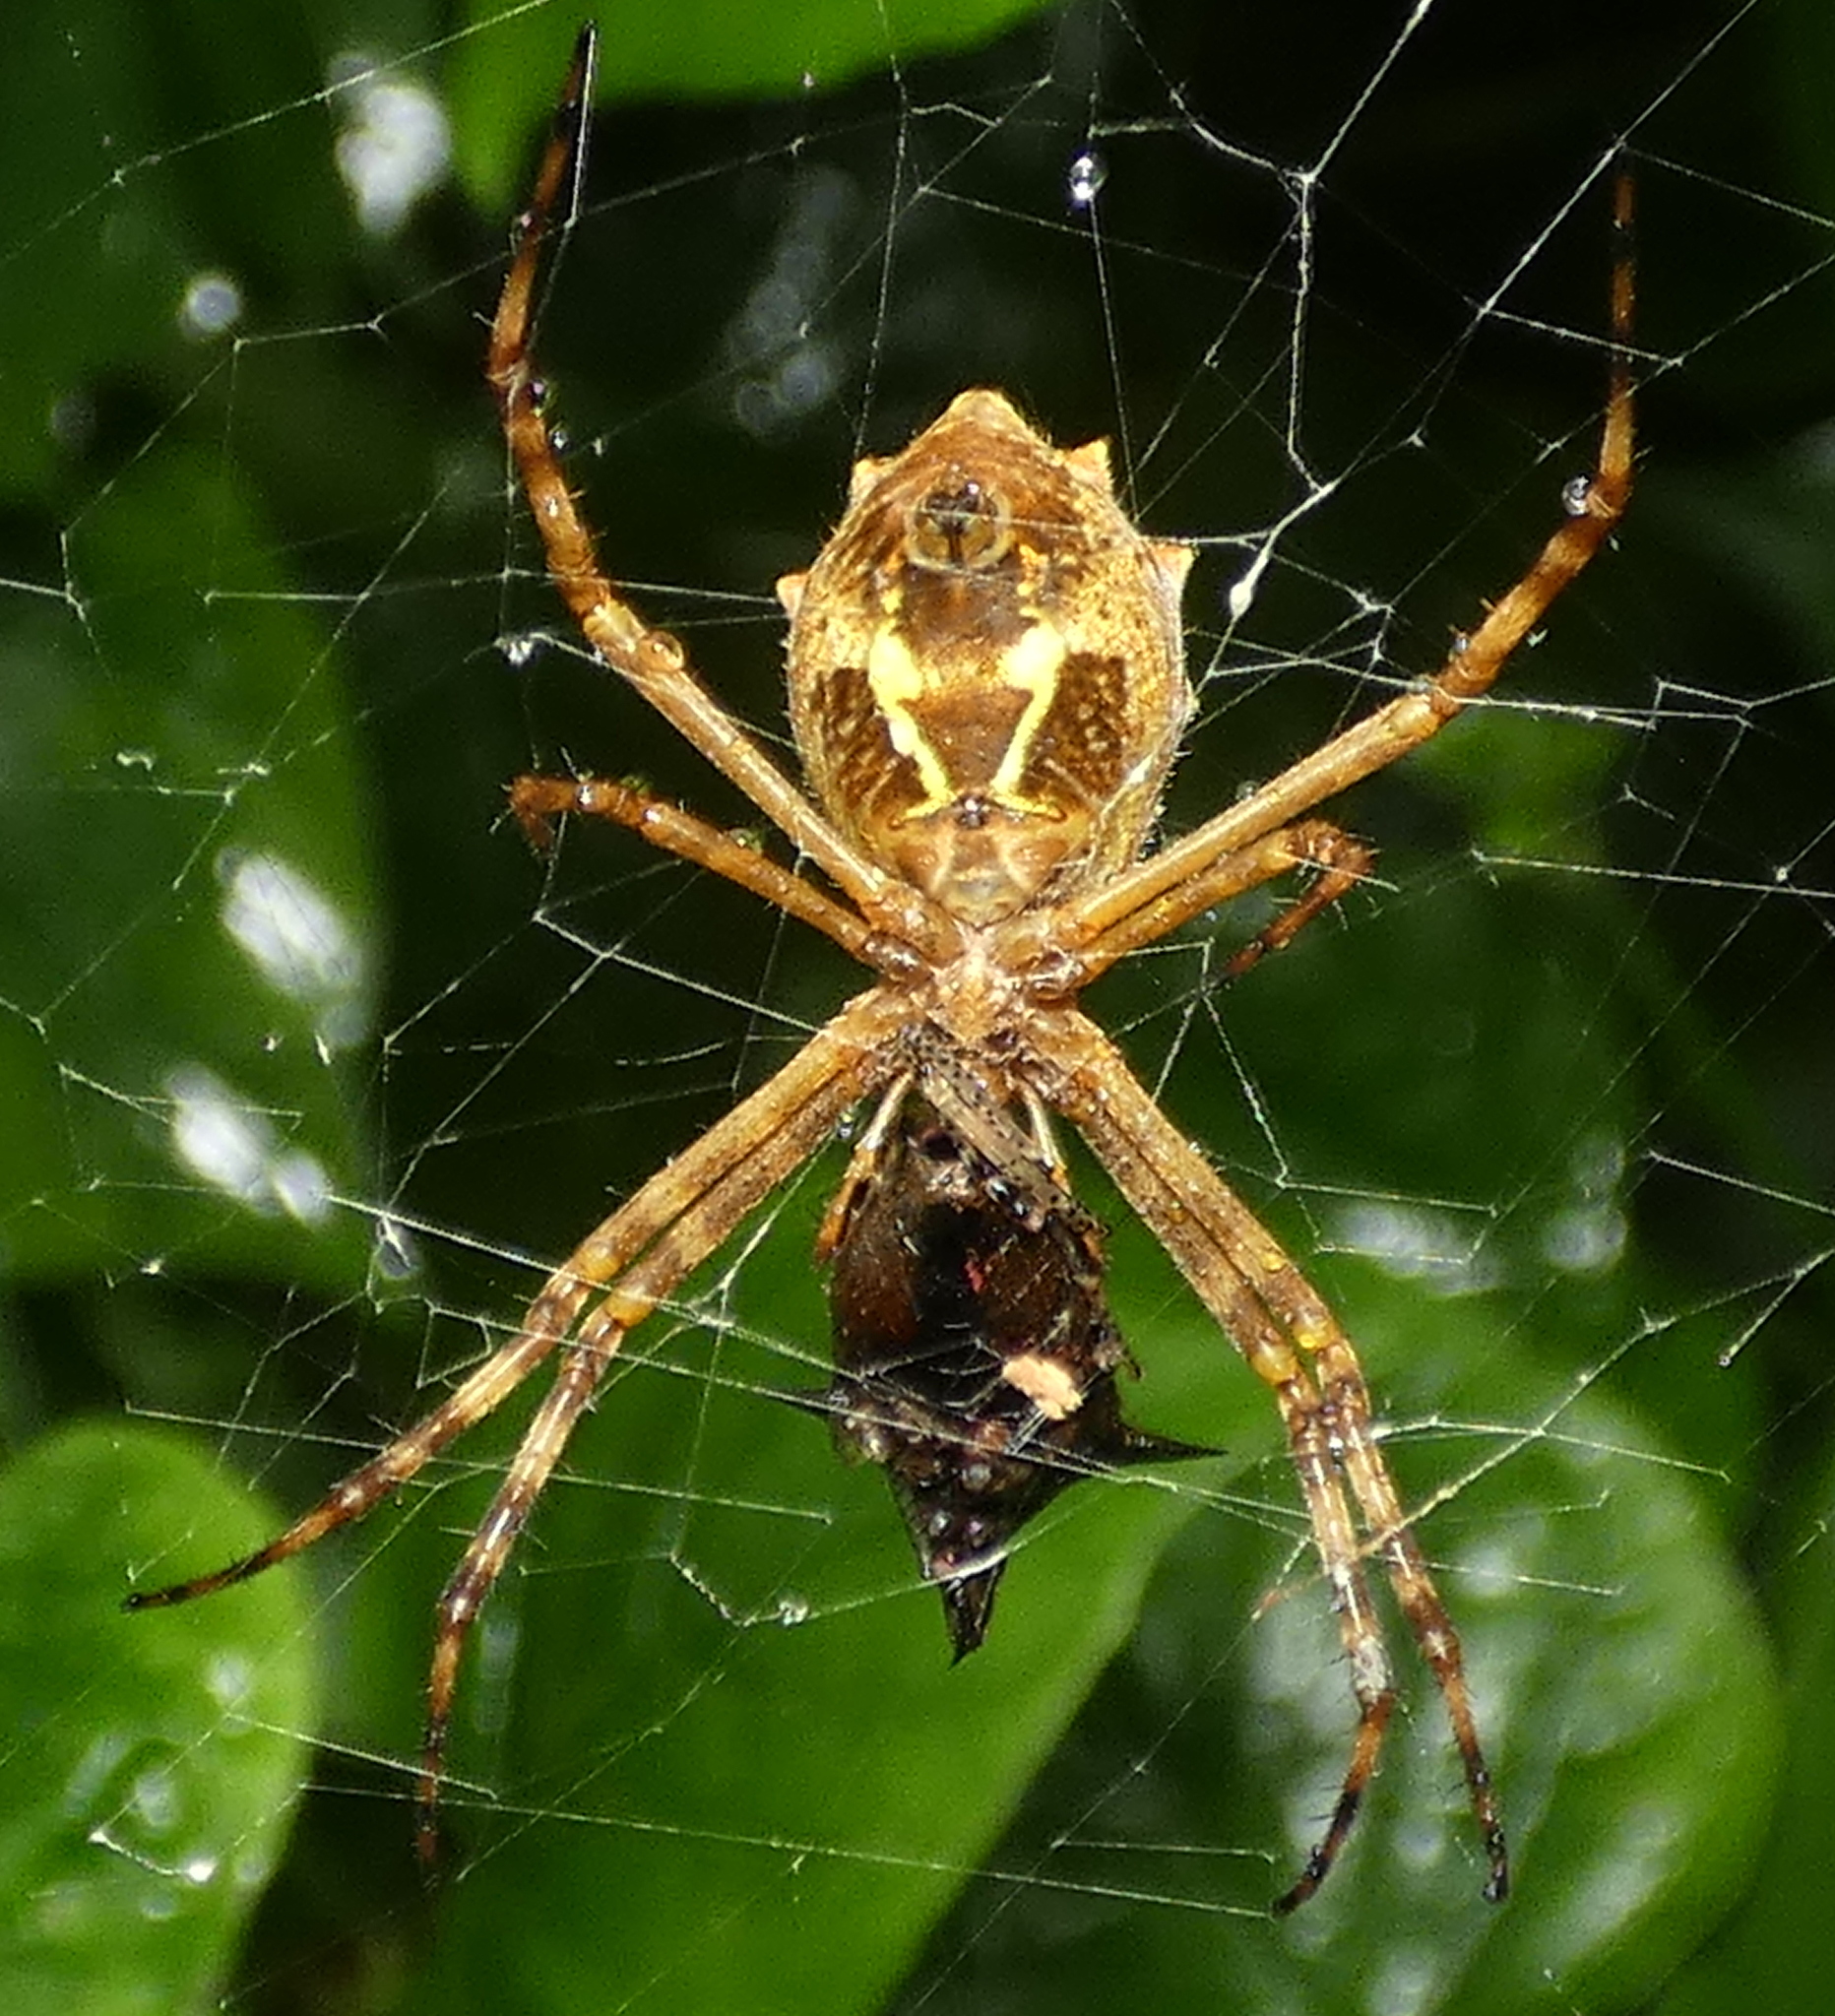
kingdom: Animalia
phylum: Arthropoda
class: Arachnida
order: Araneae
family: Araneidae
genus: Argiope
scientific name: Argiope argentata
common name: Orb weavers
